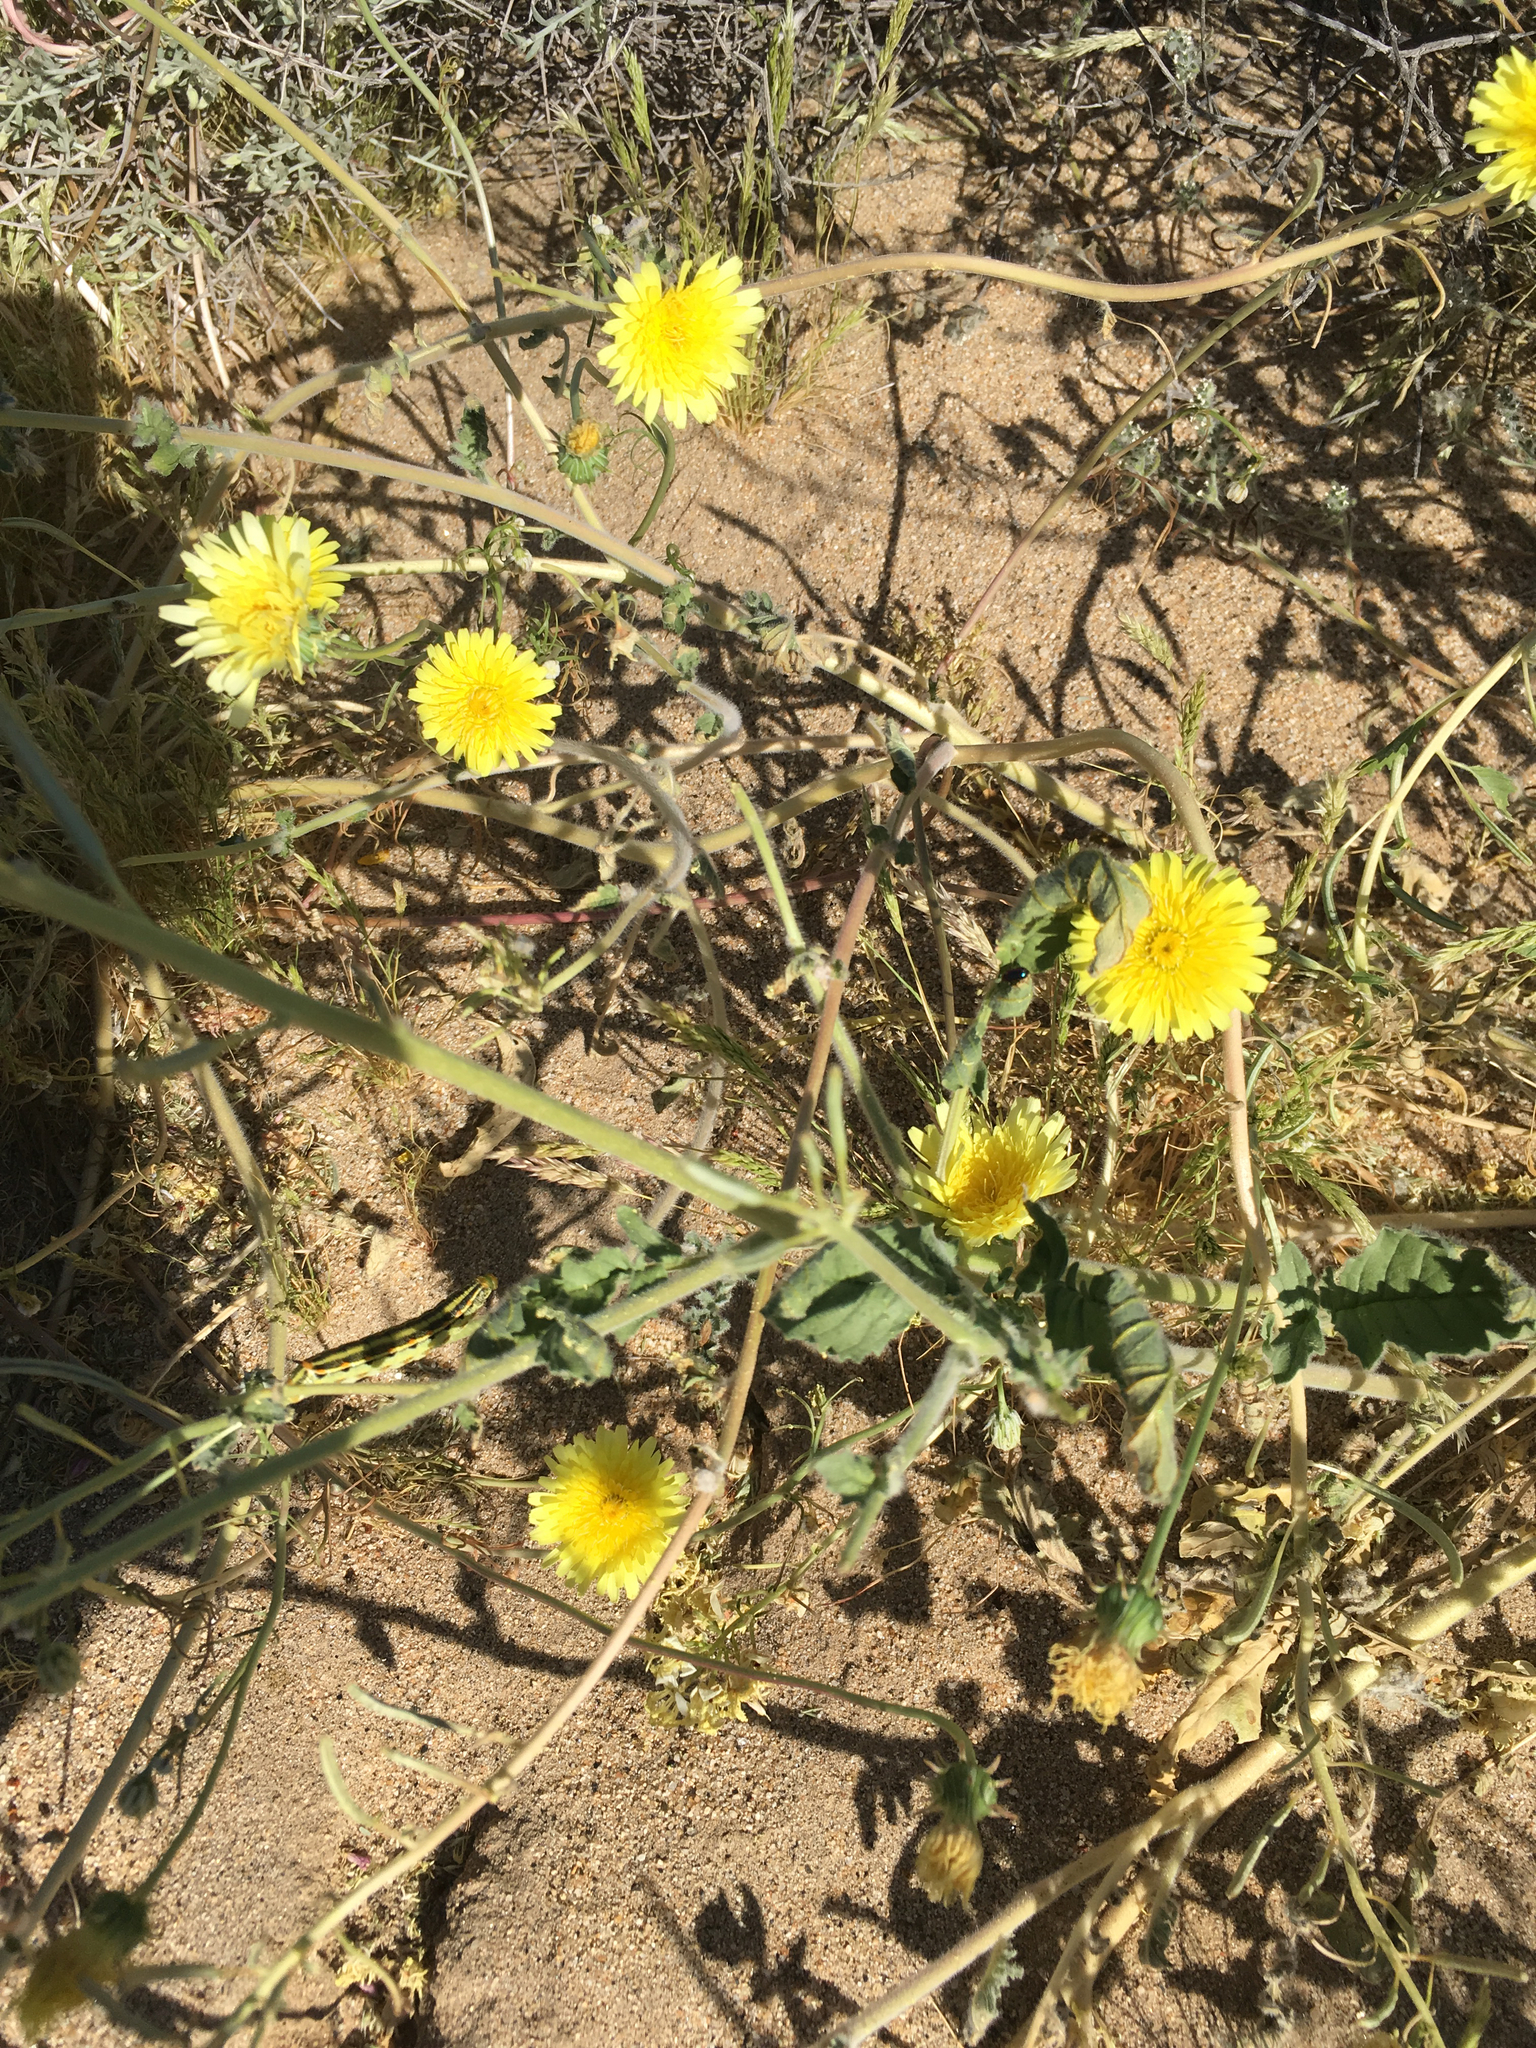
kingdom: Plantae
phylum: Tracheophyta
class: Magnoliopsida
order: Asterales
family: Asteraceae
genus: Malacothrix
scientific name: Malacothrix glabrata
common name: Smooth desert-dandelion
